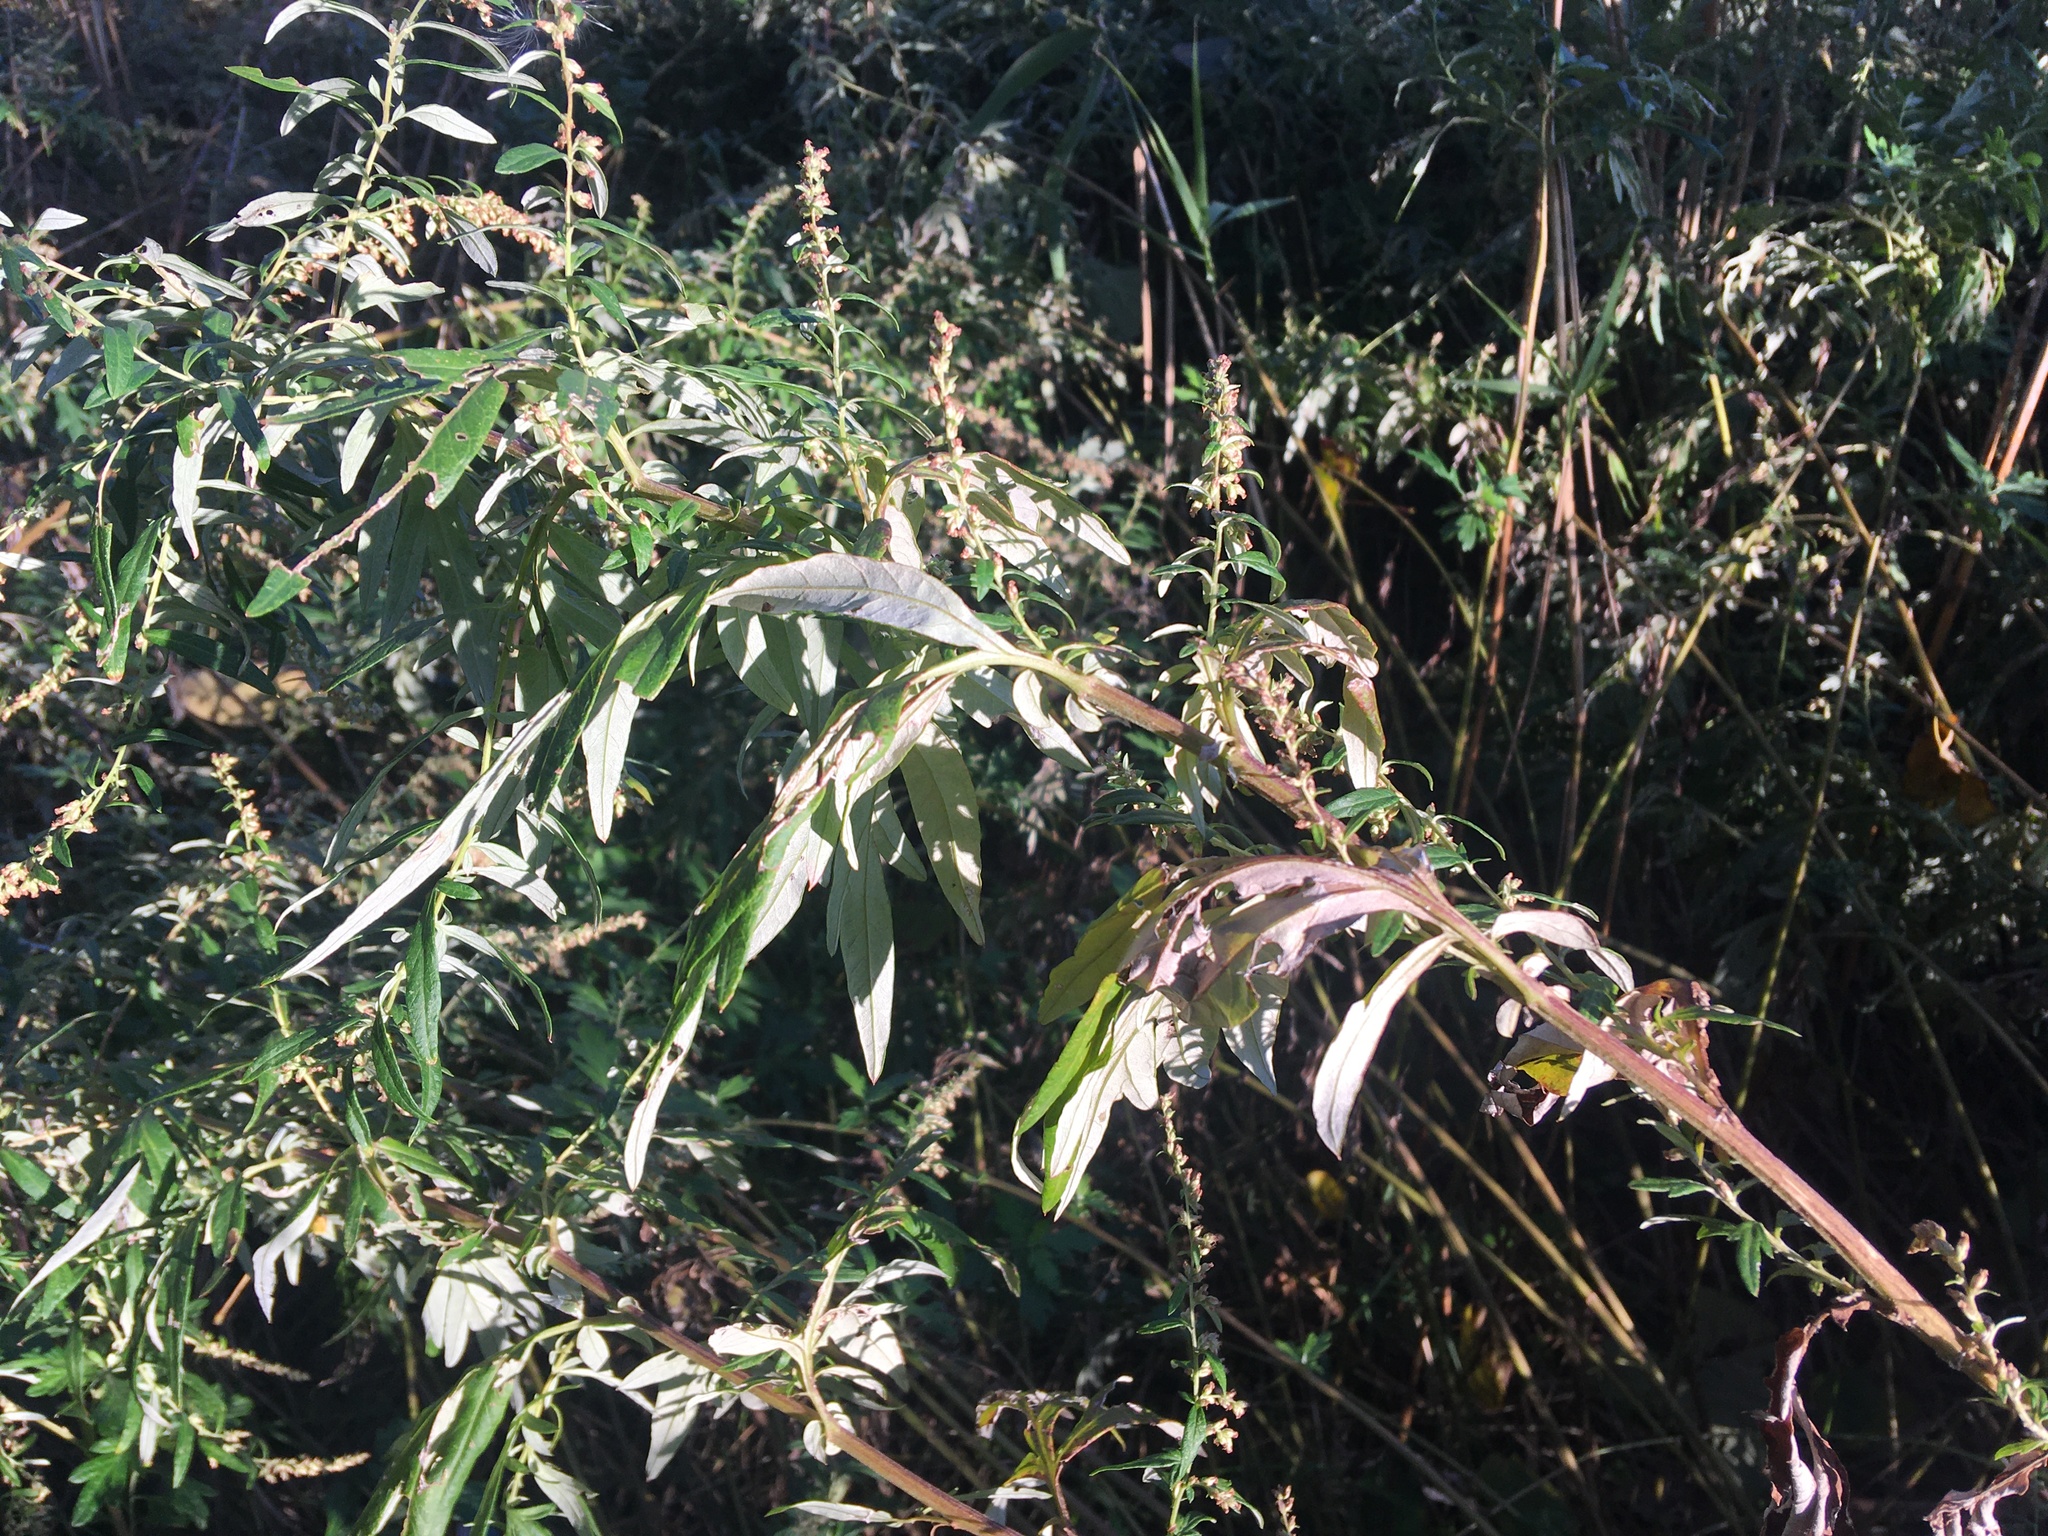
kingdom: Plantae
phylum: Tracheophyta
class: Magnoliopsida
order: Asterales
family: Asteraceae
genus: Artemisia
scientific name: Artemisia vulgaris
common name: Mugwort
